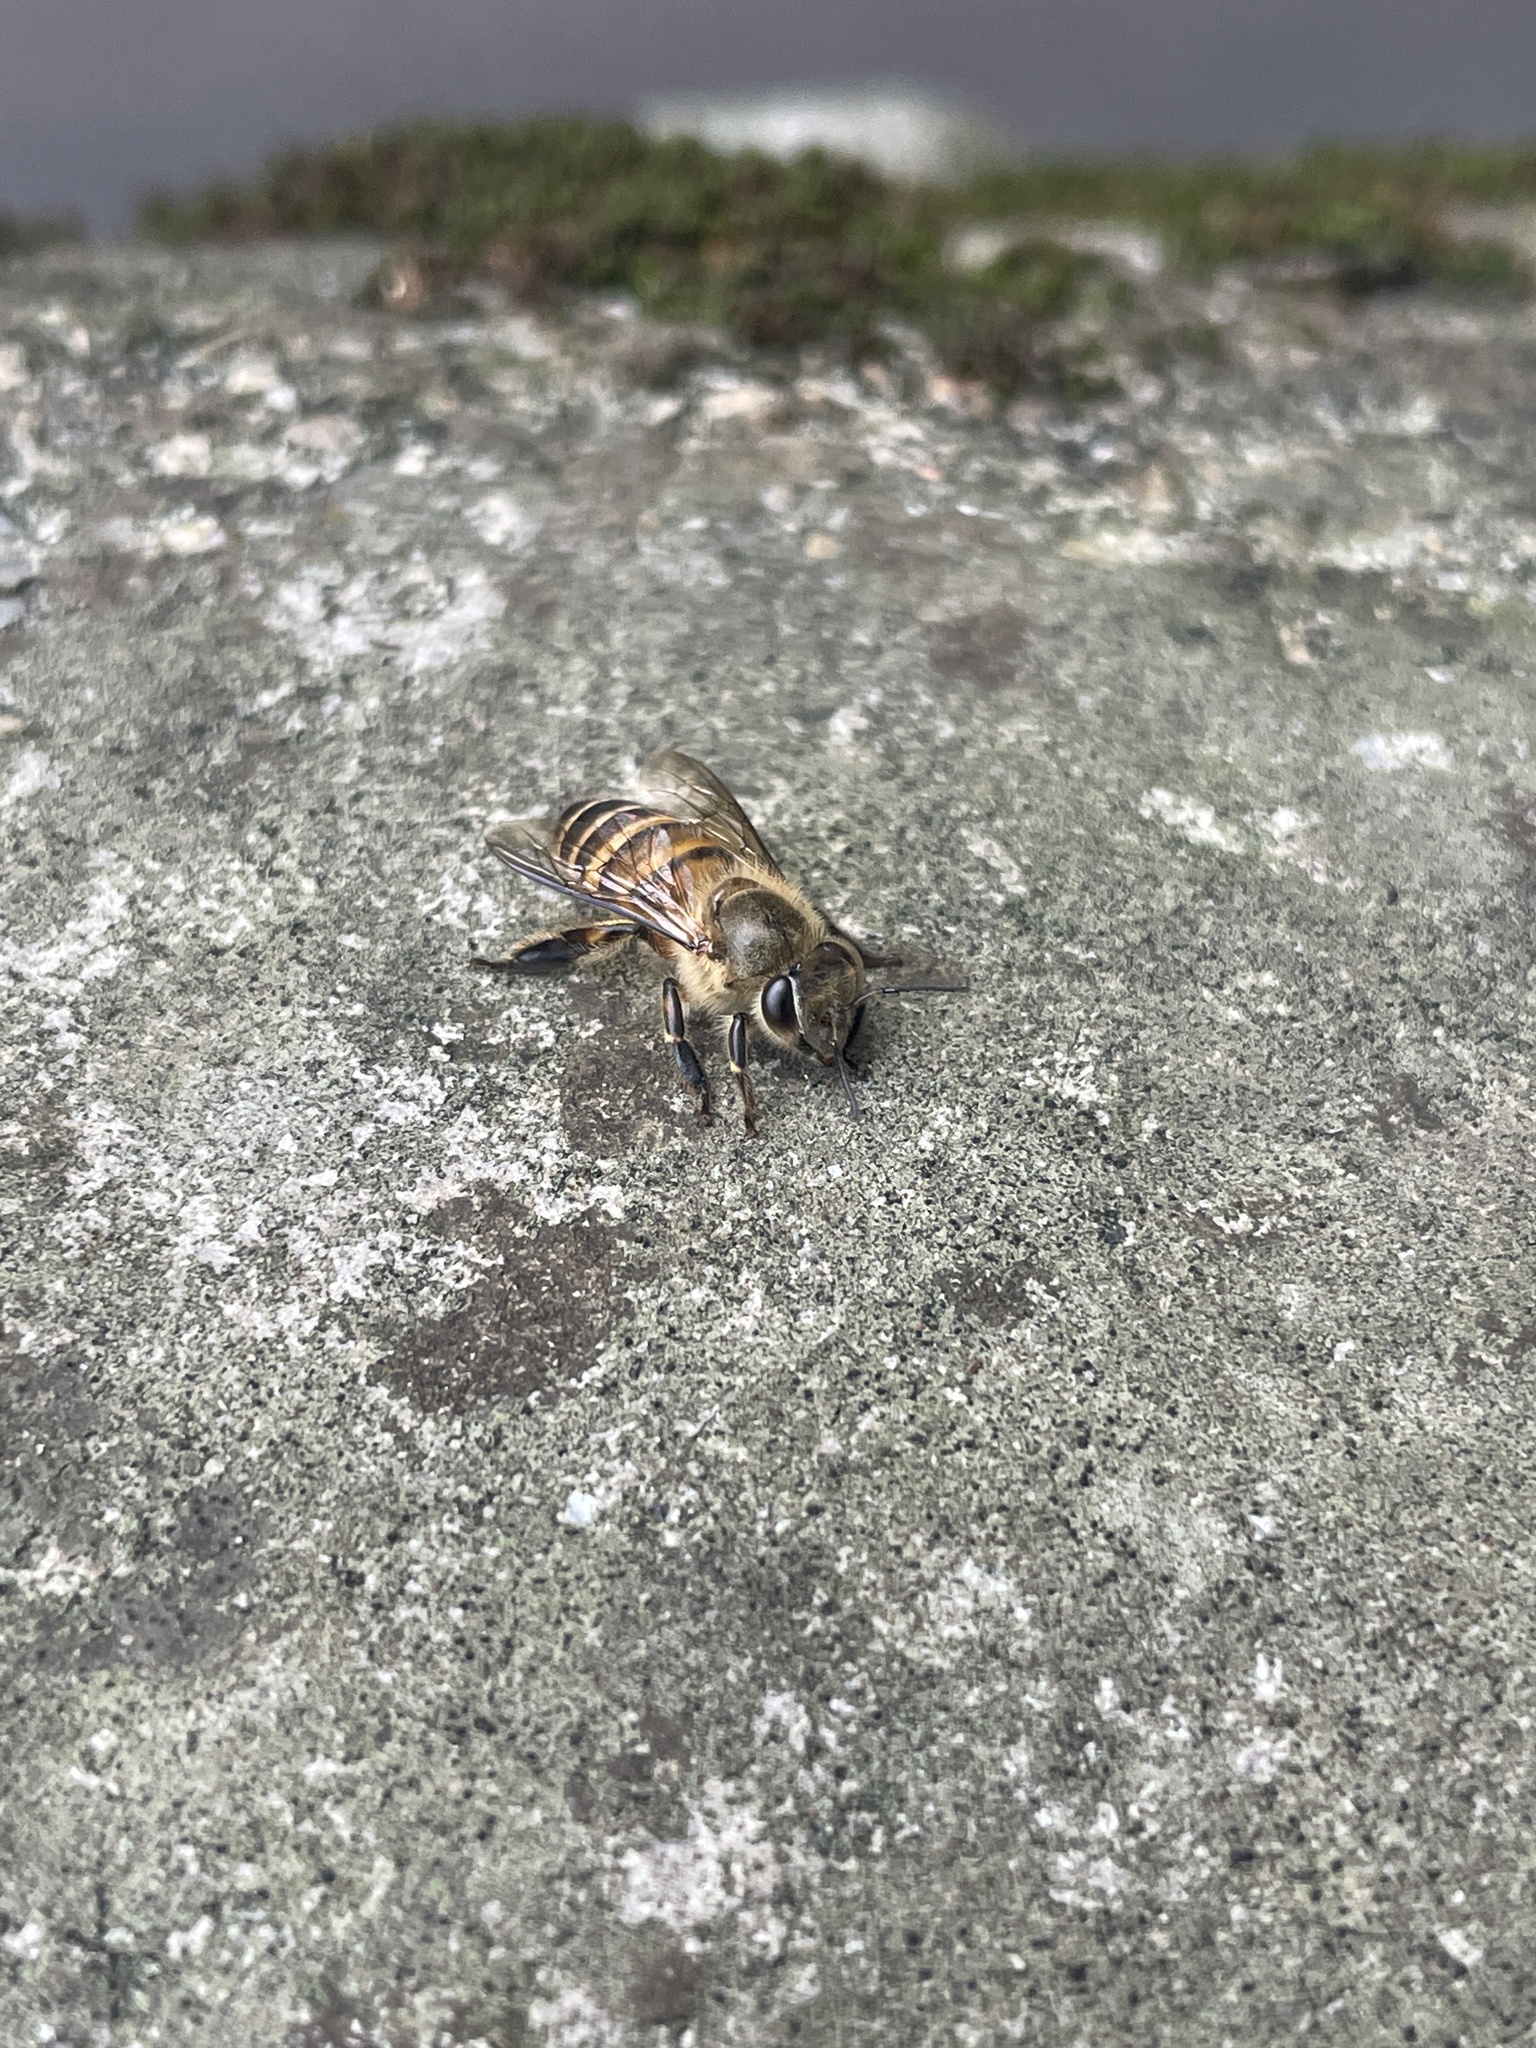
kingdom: Animalia
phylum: Arthropoda
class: Insecta
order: Hymenoptera
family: Apidae
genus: Apis
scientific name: Apis cerana
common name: Honey bee
